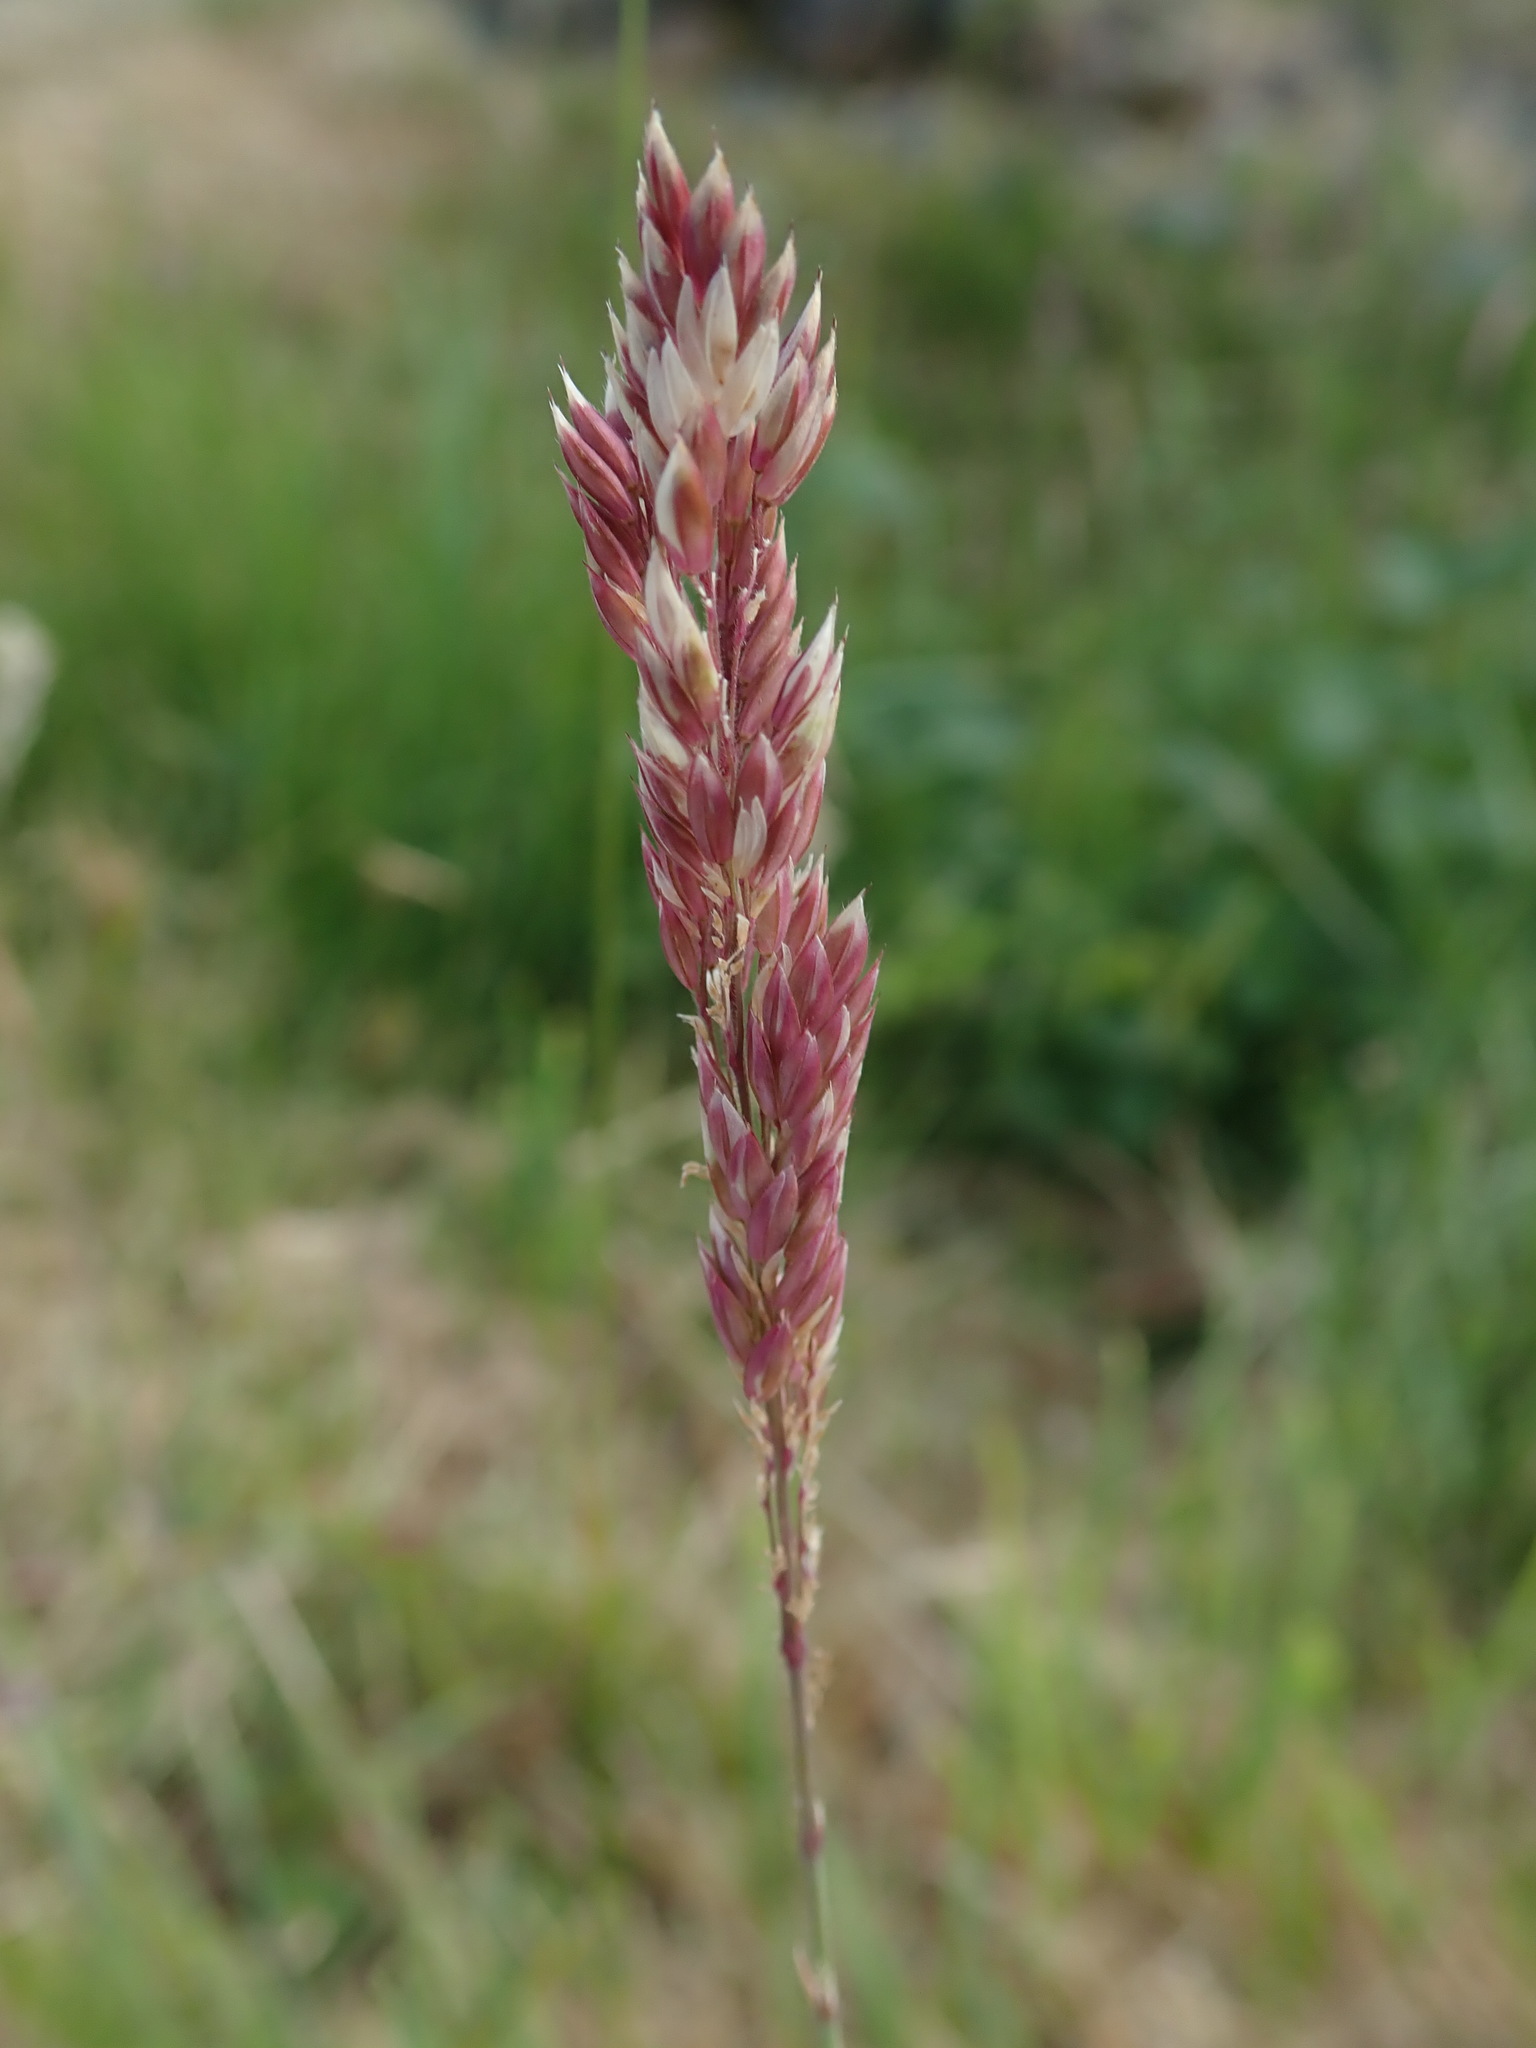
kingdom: Plantae
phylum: Tracheophyta
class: Liliopsida
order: Poales
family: Poaceae
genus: Holcus
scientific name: Holcus lanatus
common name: Yorkshire-fog
